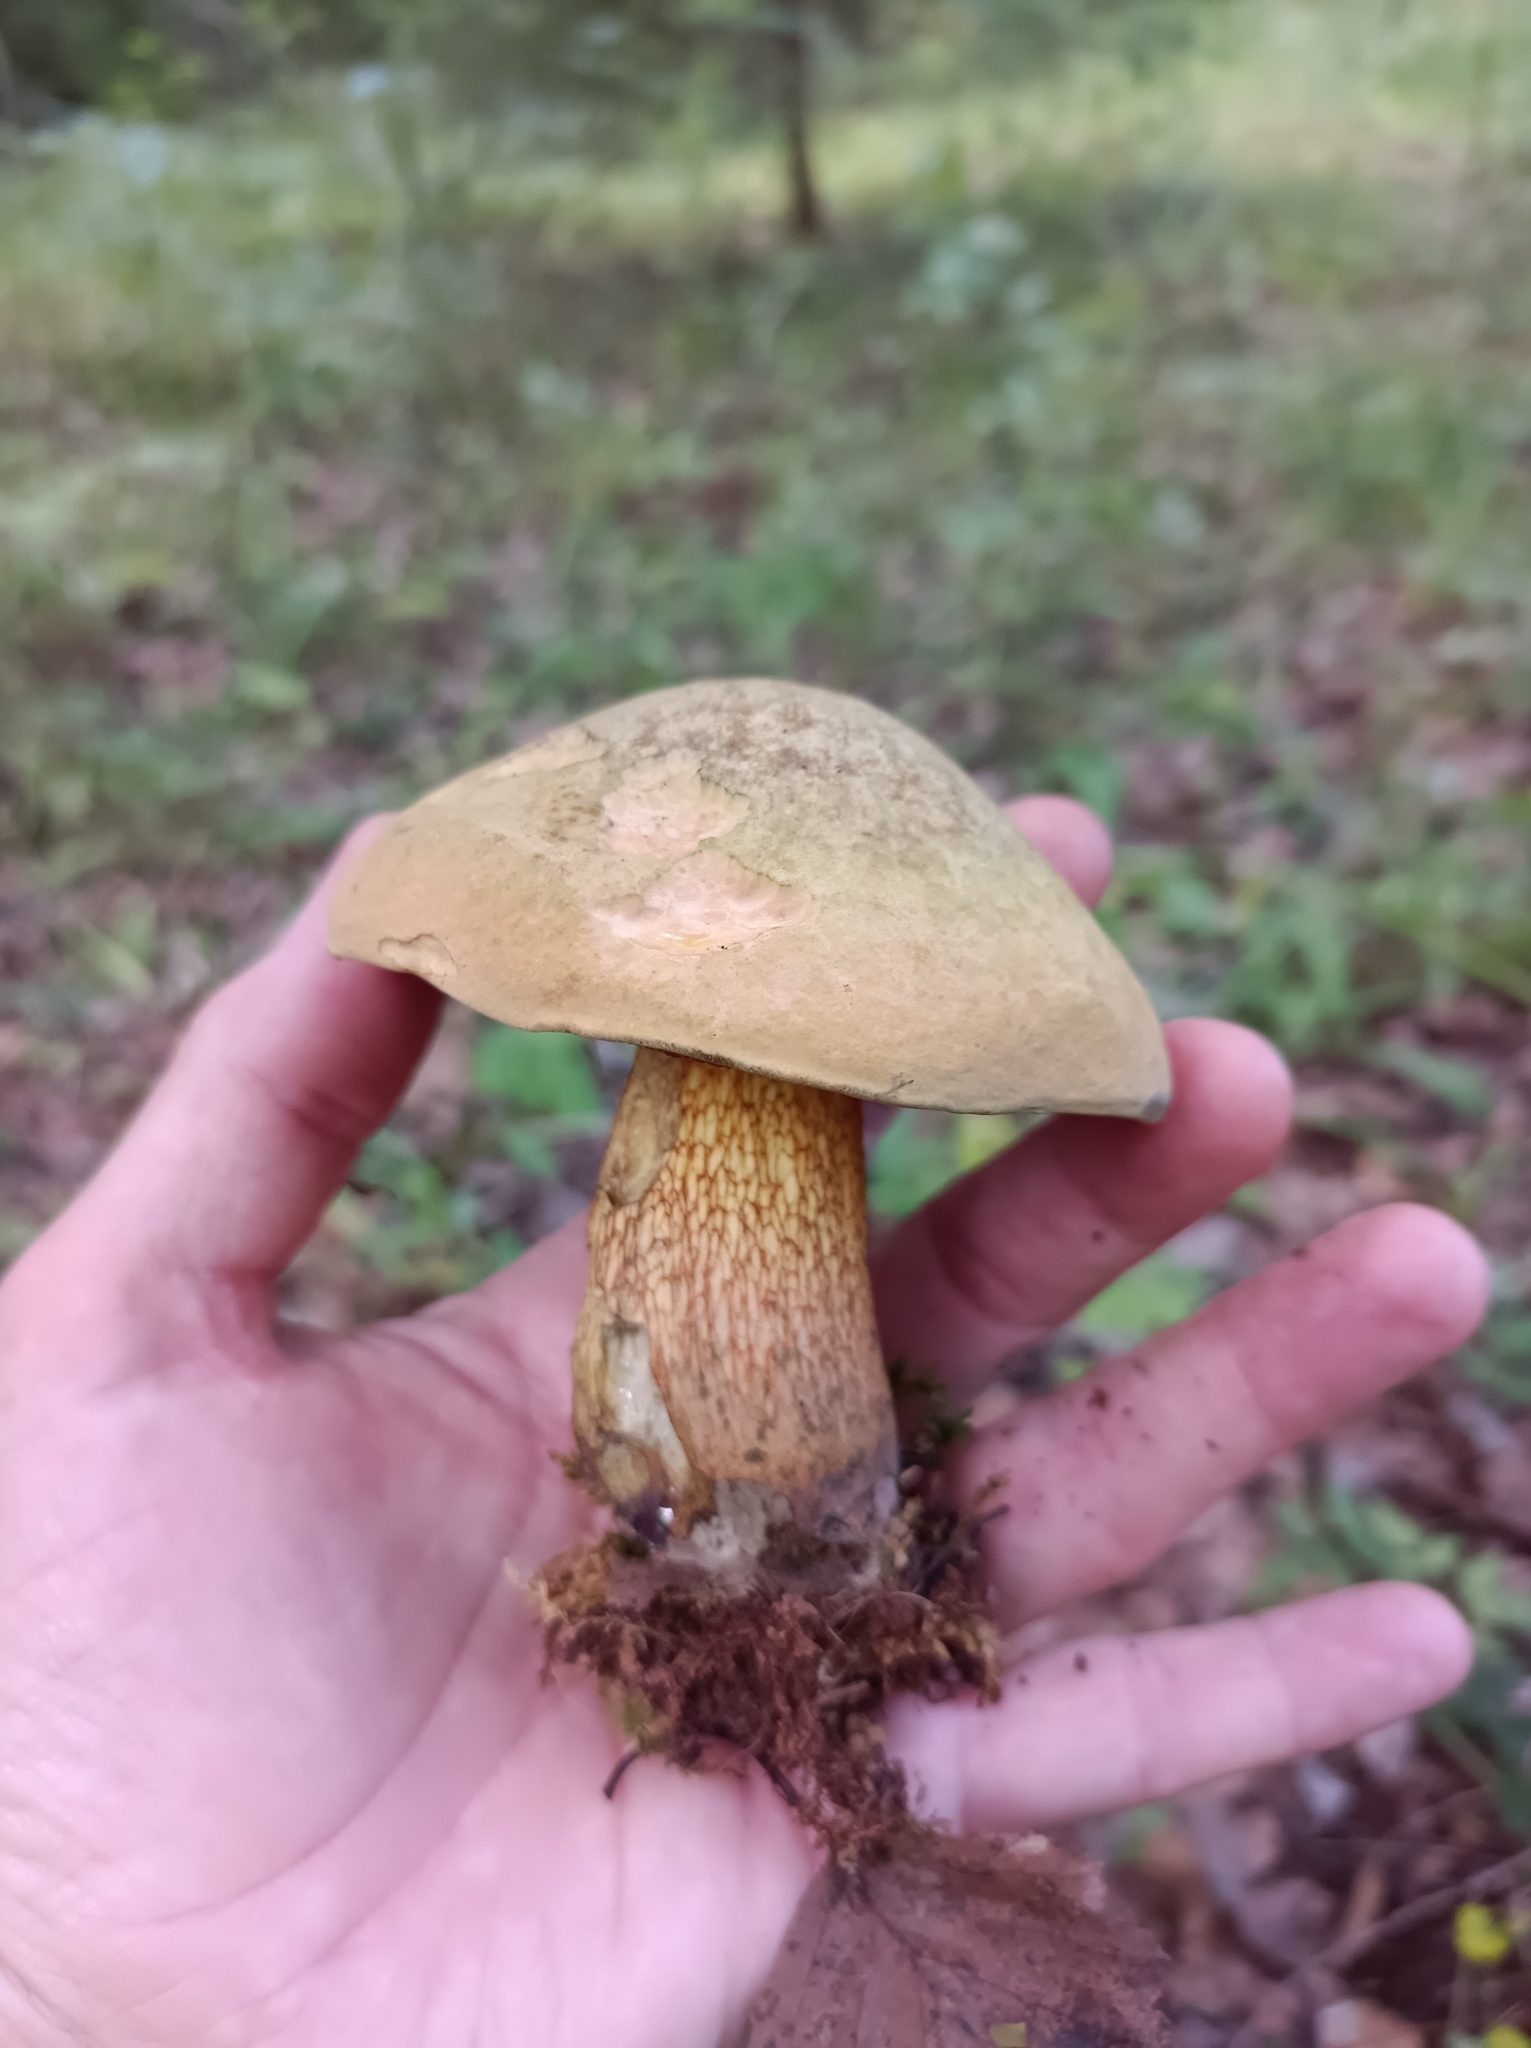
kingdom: Fungi
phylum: Basidiomycota
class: Agaricomycetes
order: Boletales
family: Boletaceae
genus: Suillellus
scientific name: Suillellus luridus
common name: Lurid bolete
